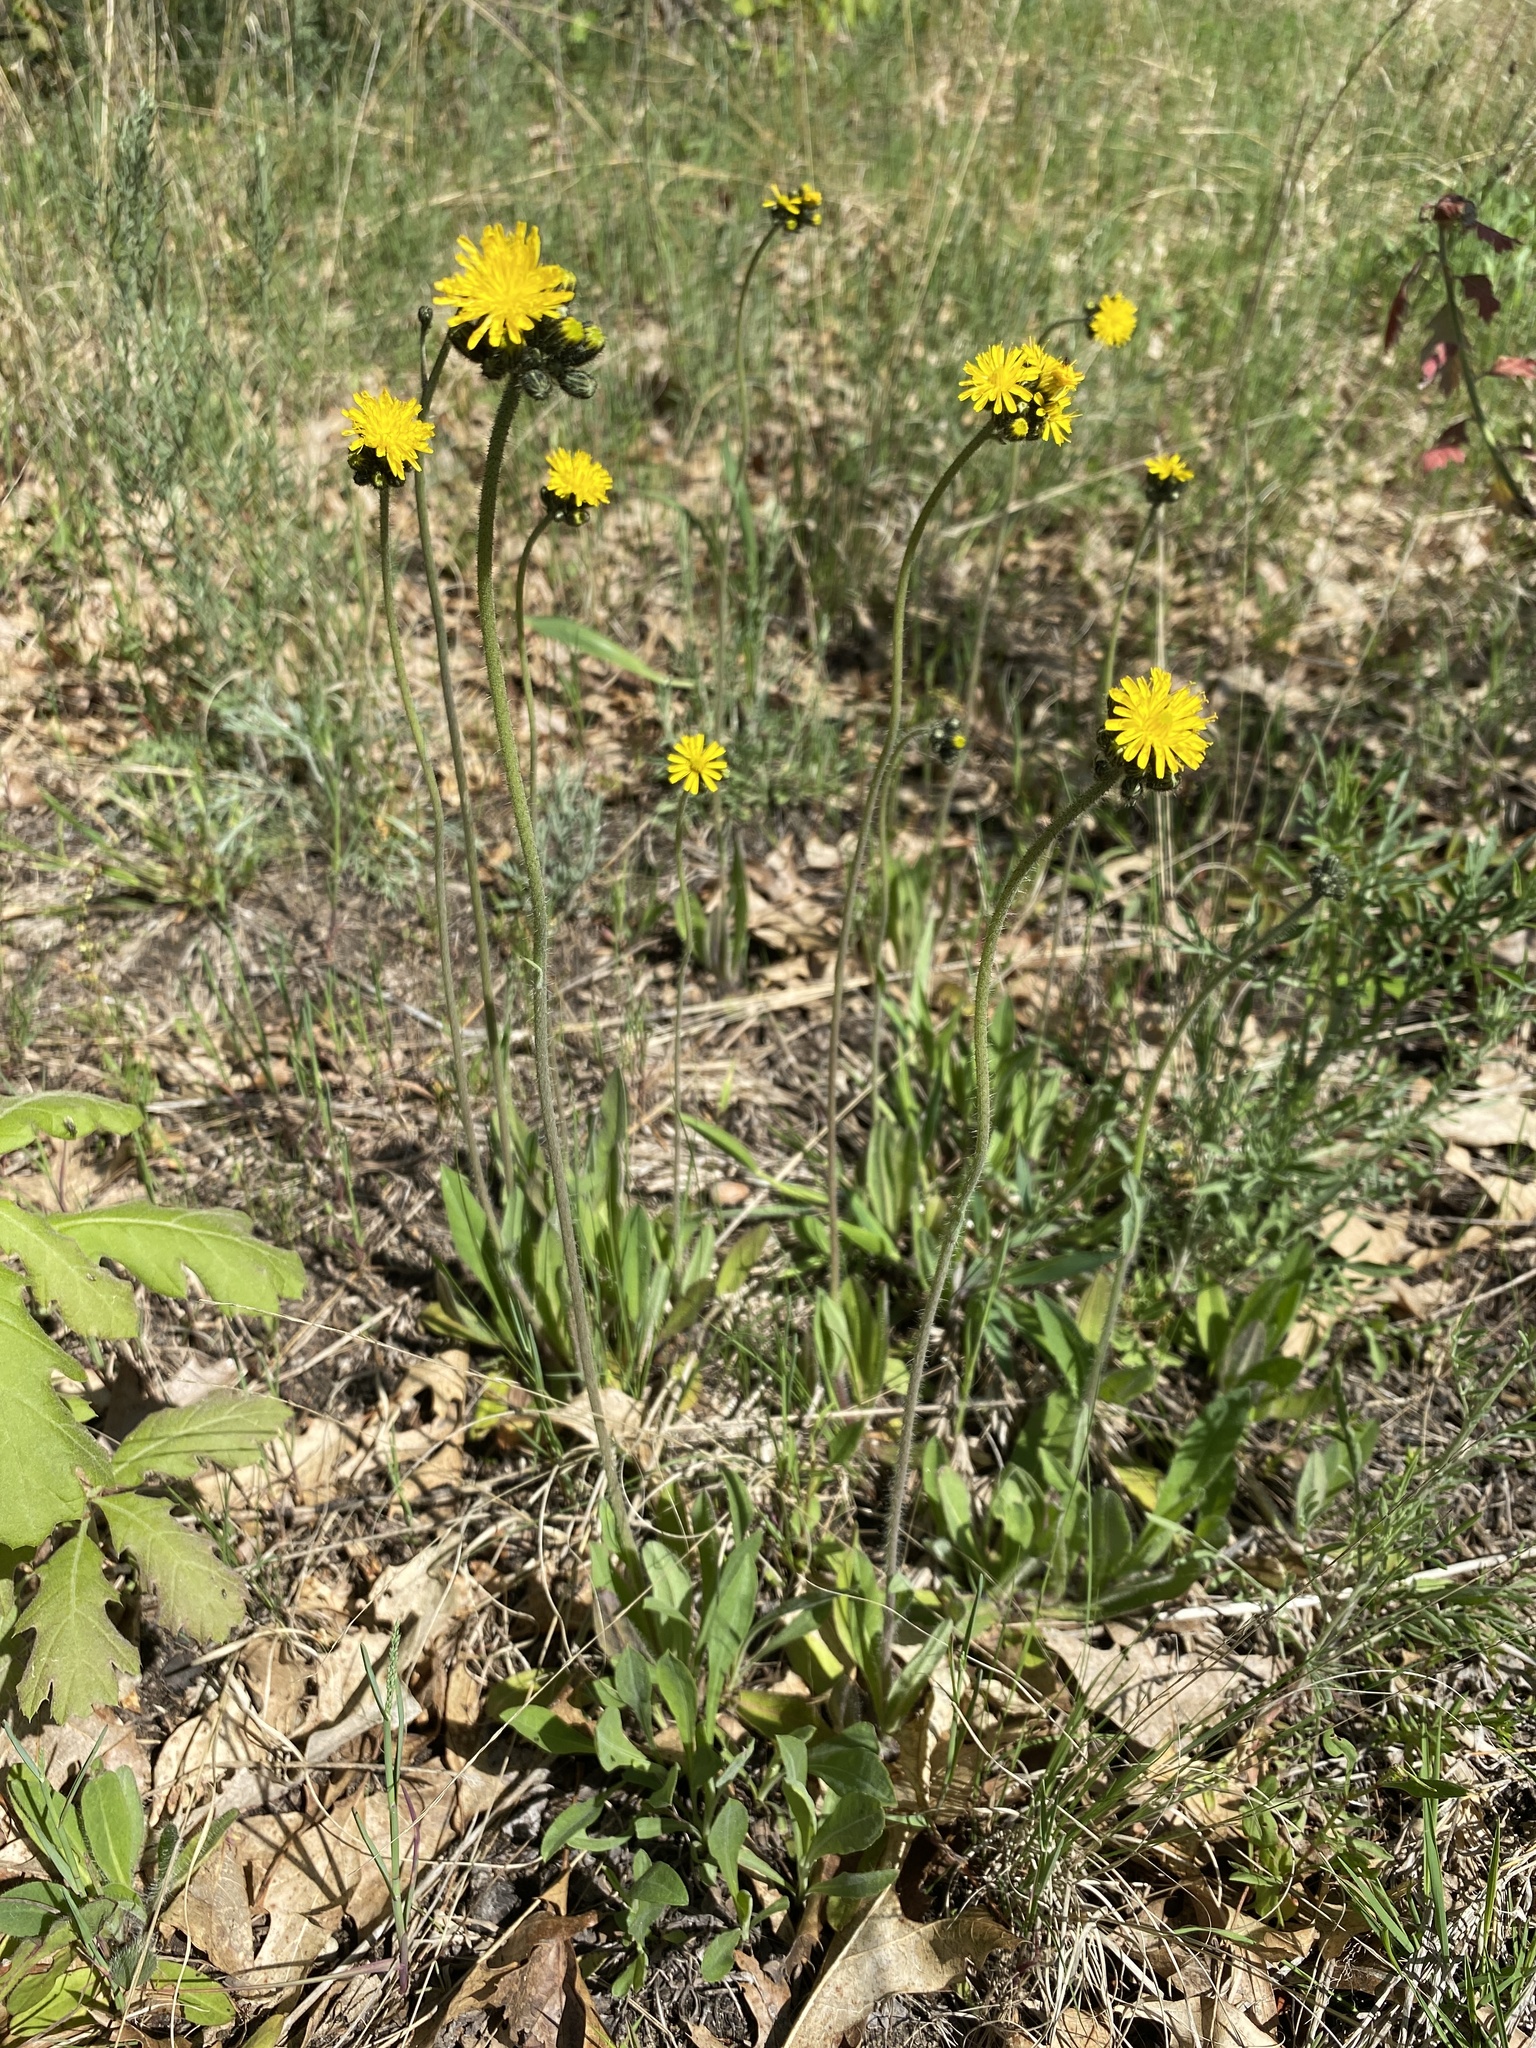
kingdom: Plantae
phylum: Tracheophyta
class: Magnoliopsida
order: Asterales
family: Asteraceae
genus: Pilosella
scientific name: Pilosella caespitosa
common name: Yellow fox-and-cubs
